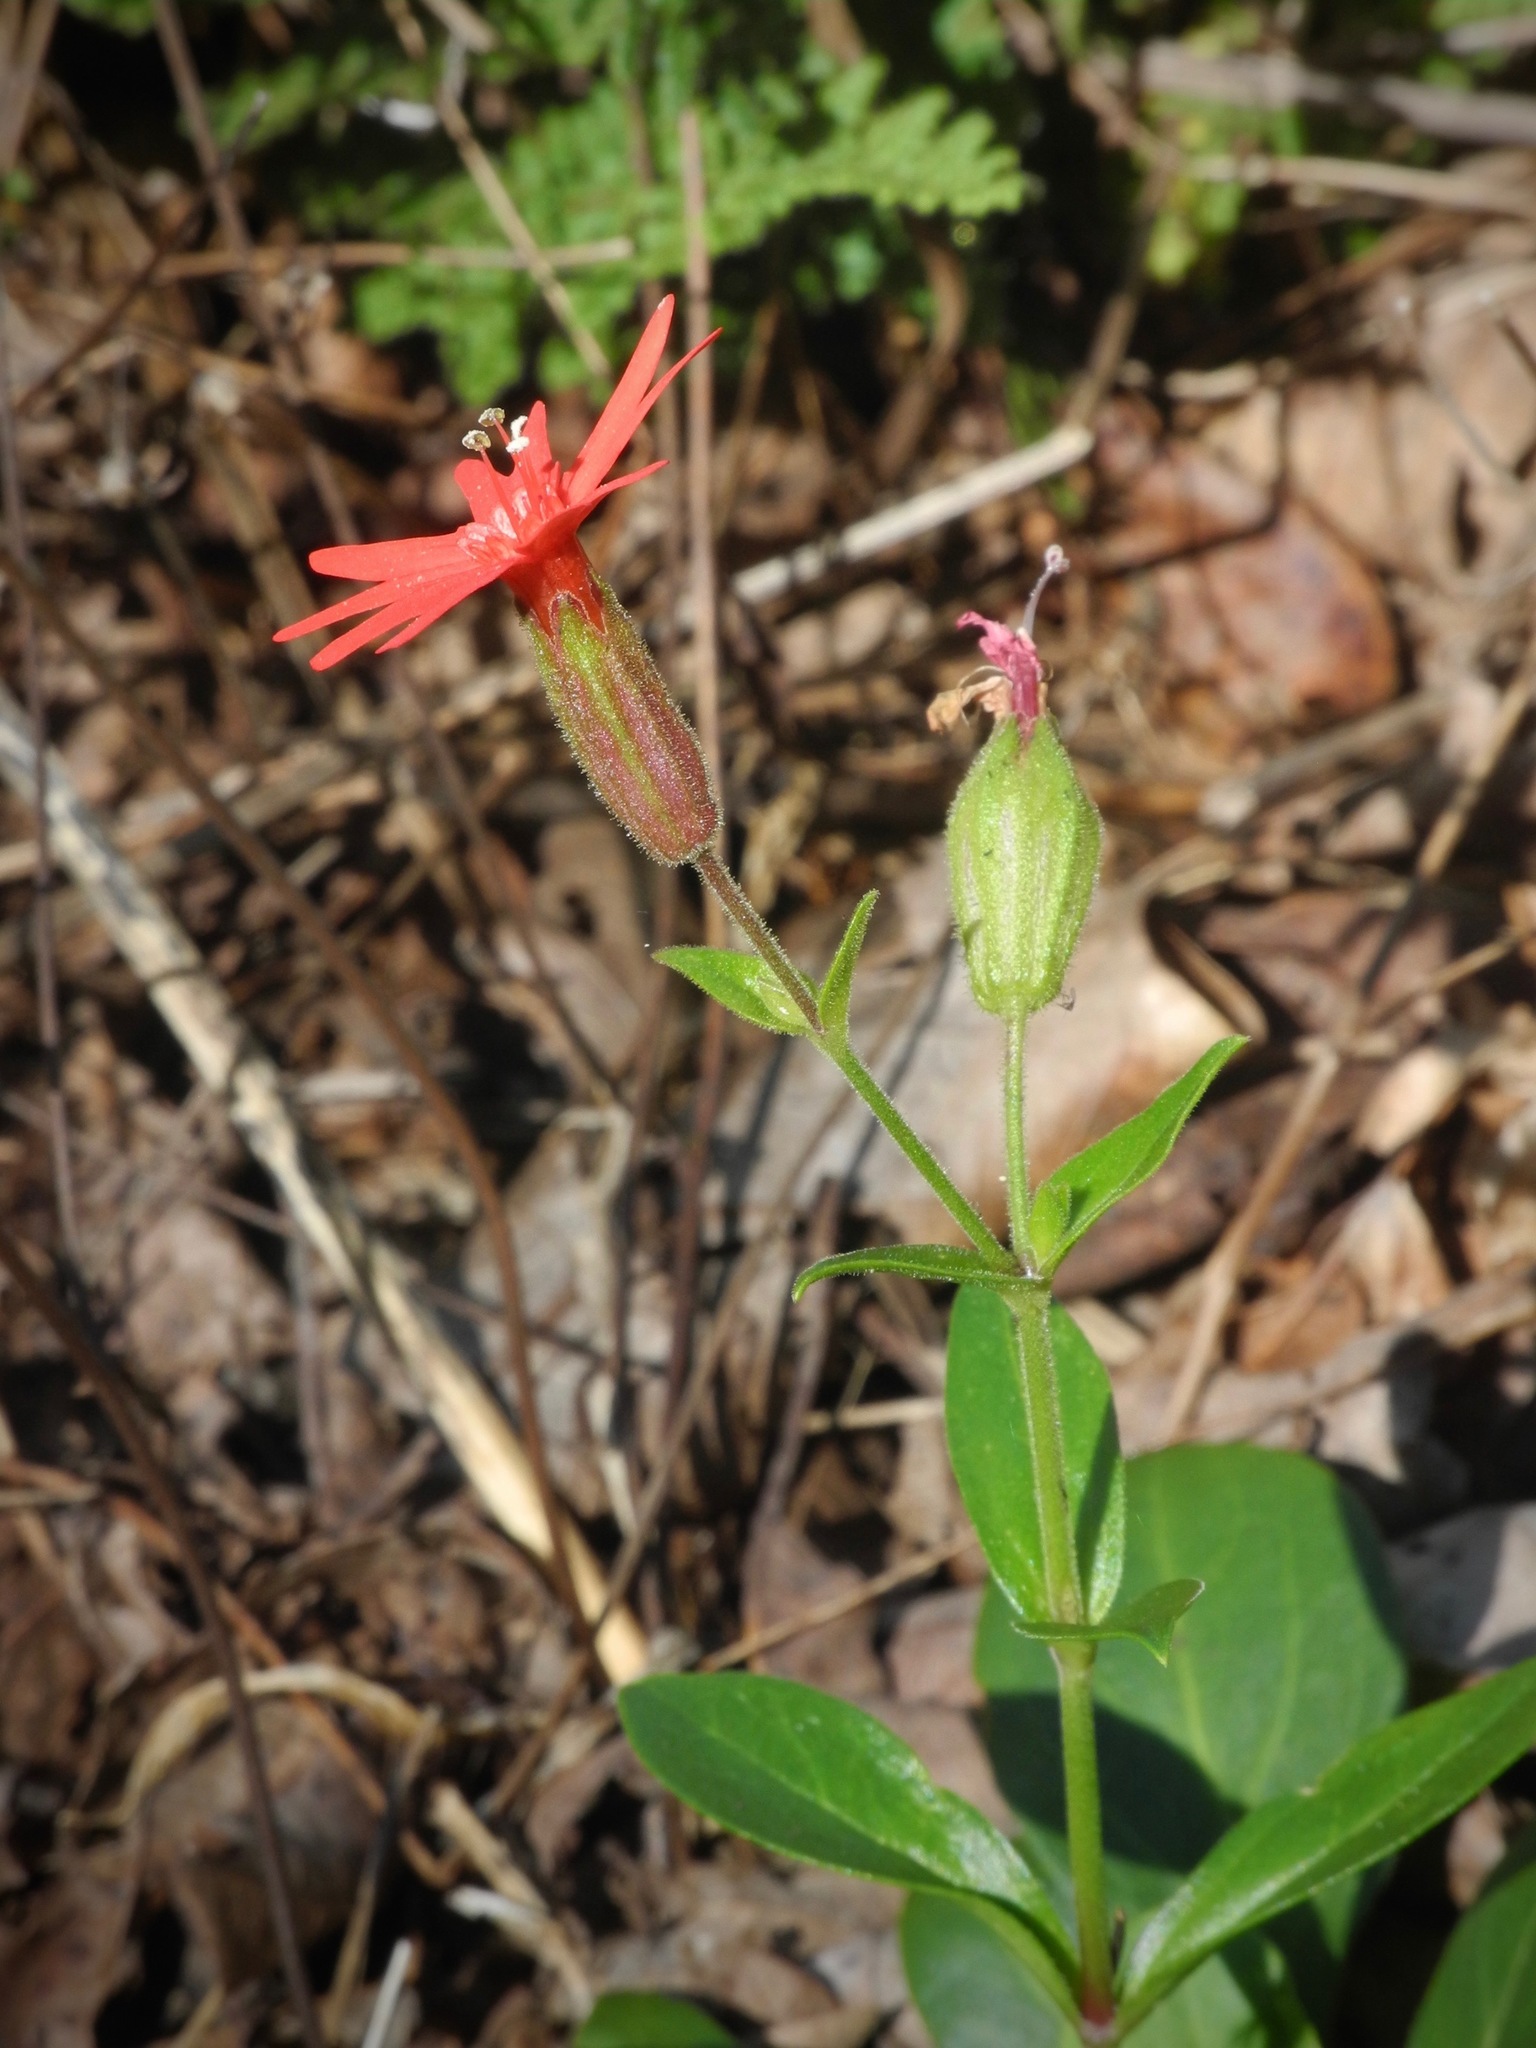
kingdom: Plantae
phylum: Tracheophyta
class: Magnoliopsida
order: Caryophyllales
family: Caryophyllaceae
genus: Silene
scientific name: Silene virginica
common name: Fire-pink
